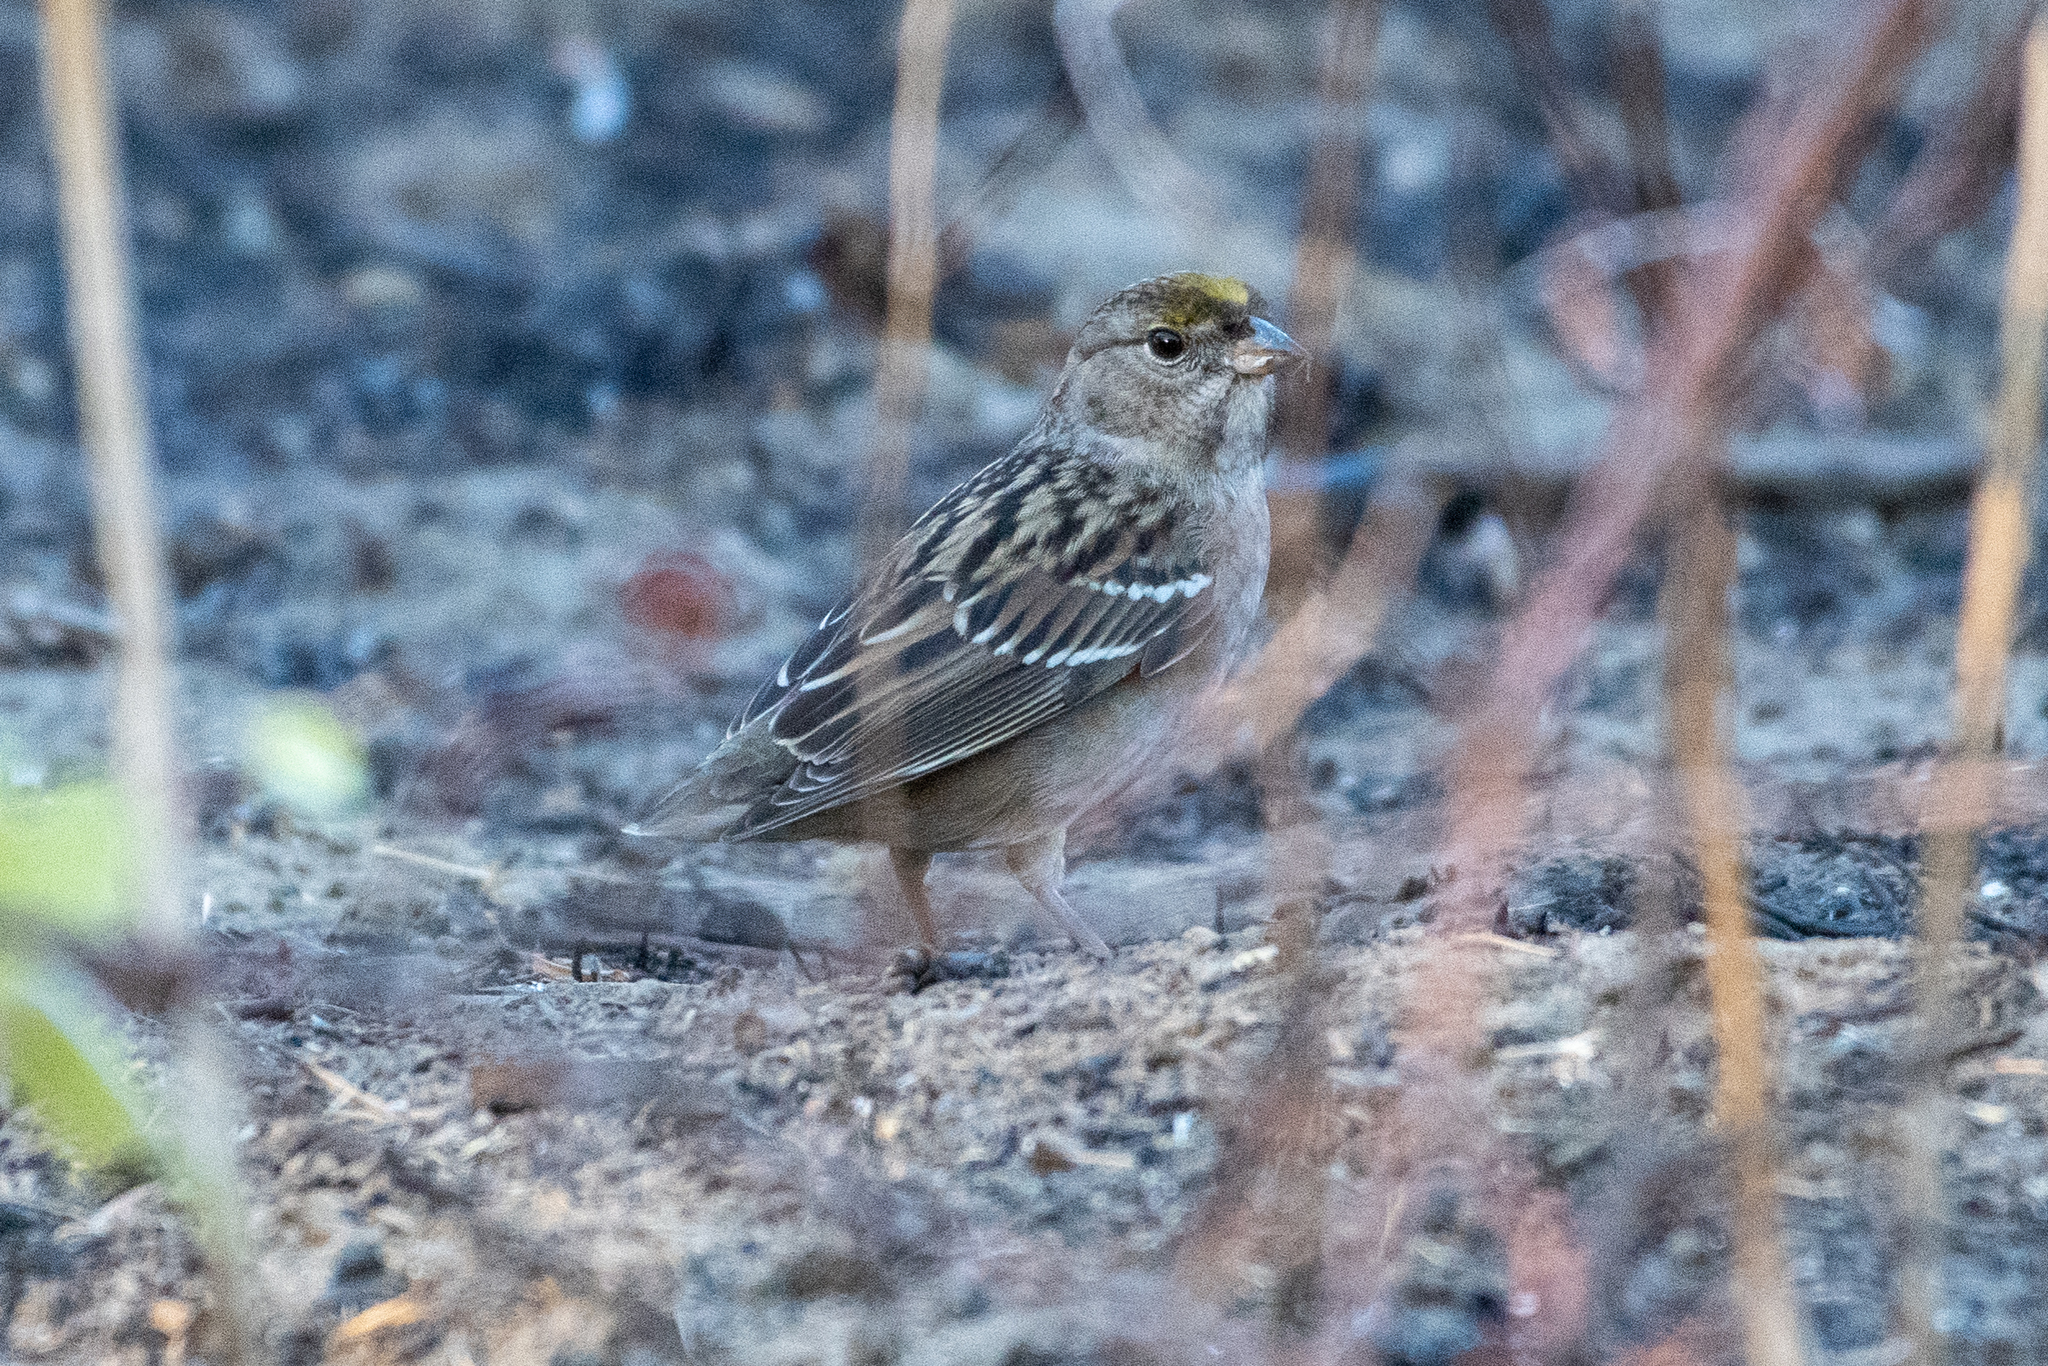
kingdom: Animalia
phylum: Chordata
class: Aves
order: Passeriformes
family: Passerellidae
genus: Zonotrichia
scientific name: Zonotrichia atricapilla
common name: Golden-crowned sparrow
